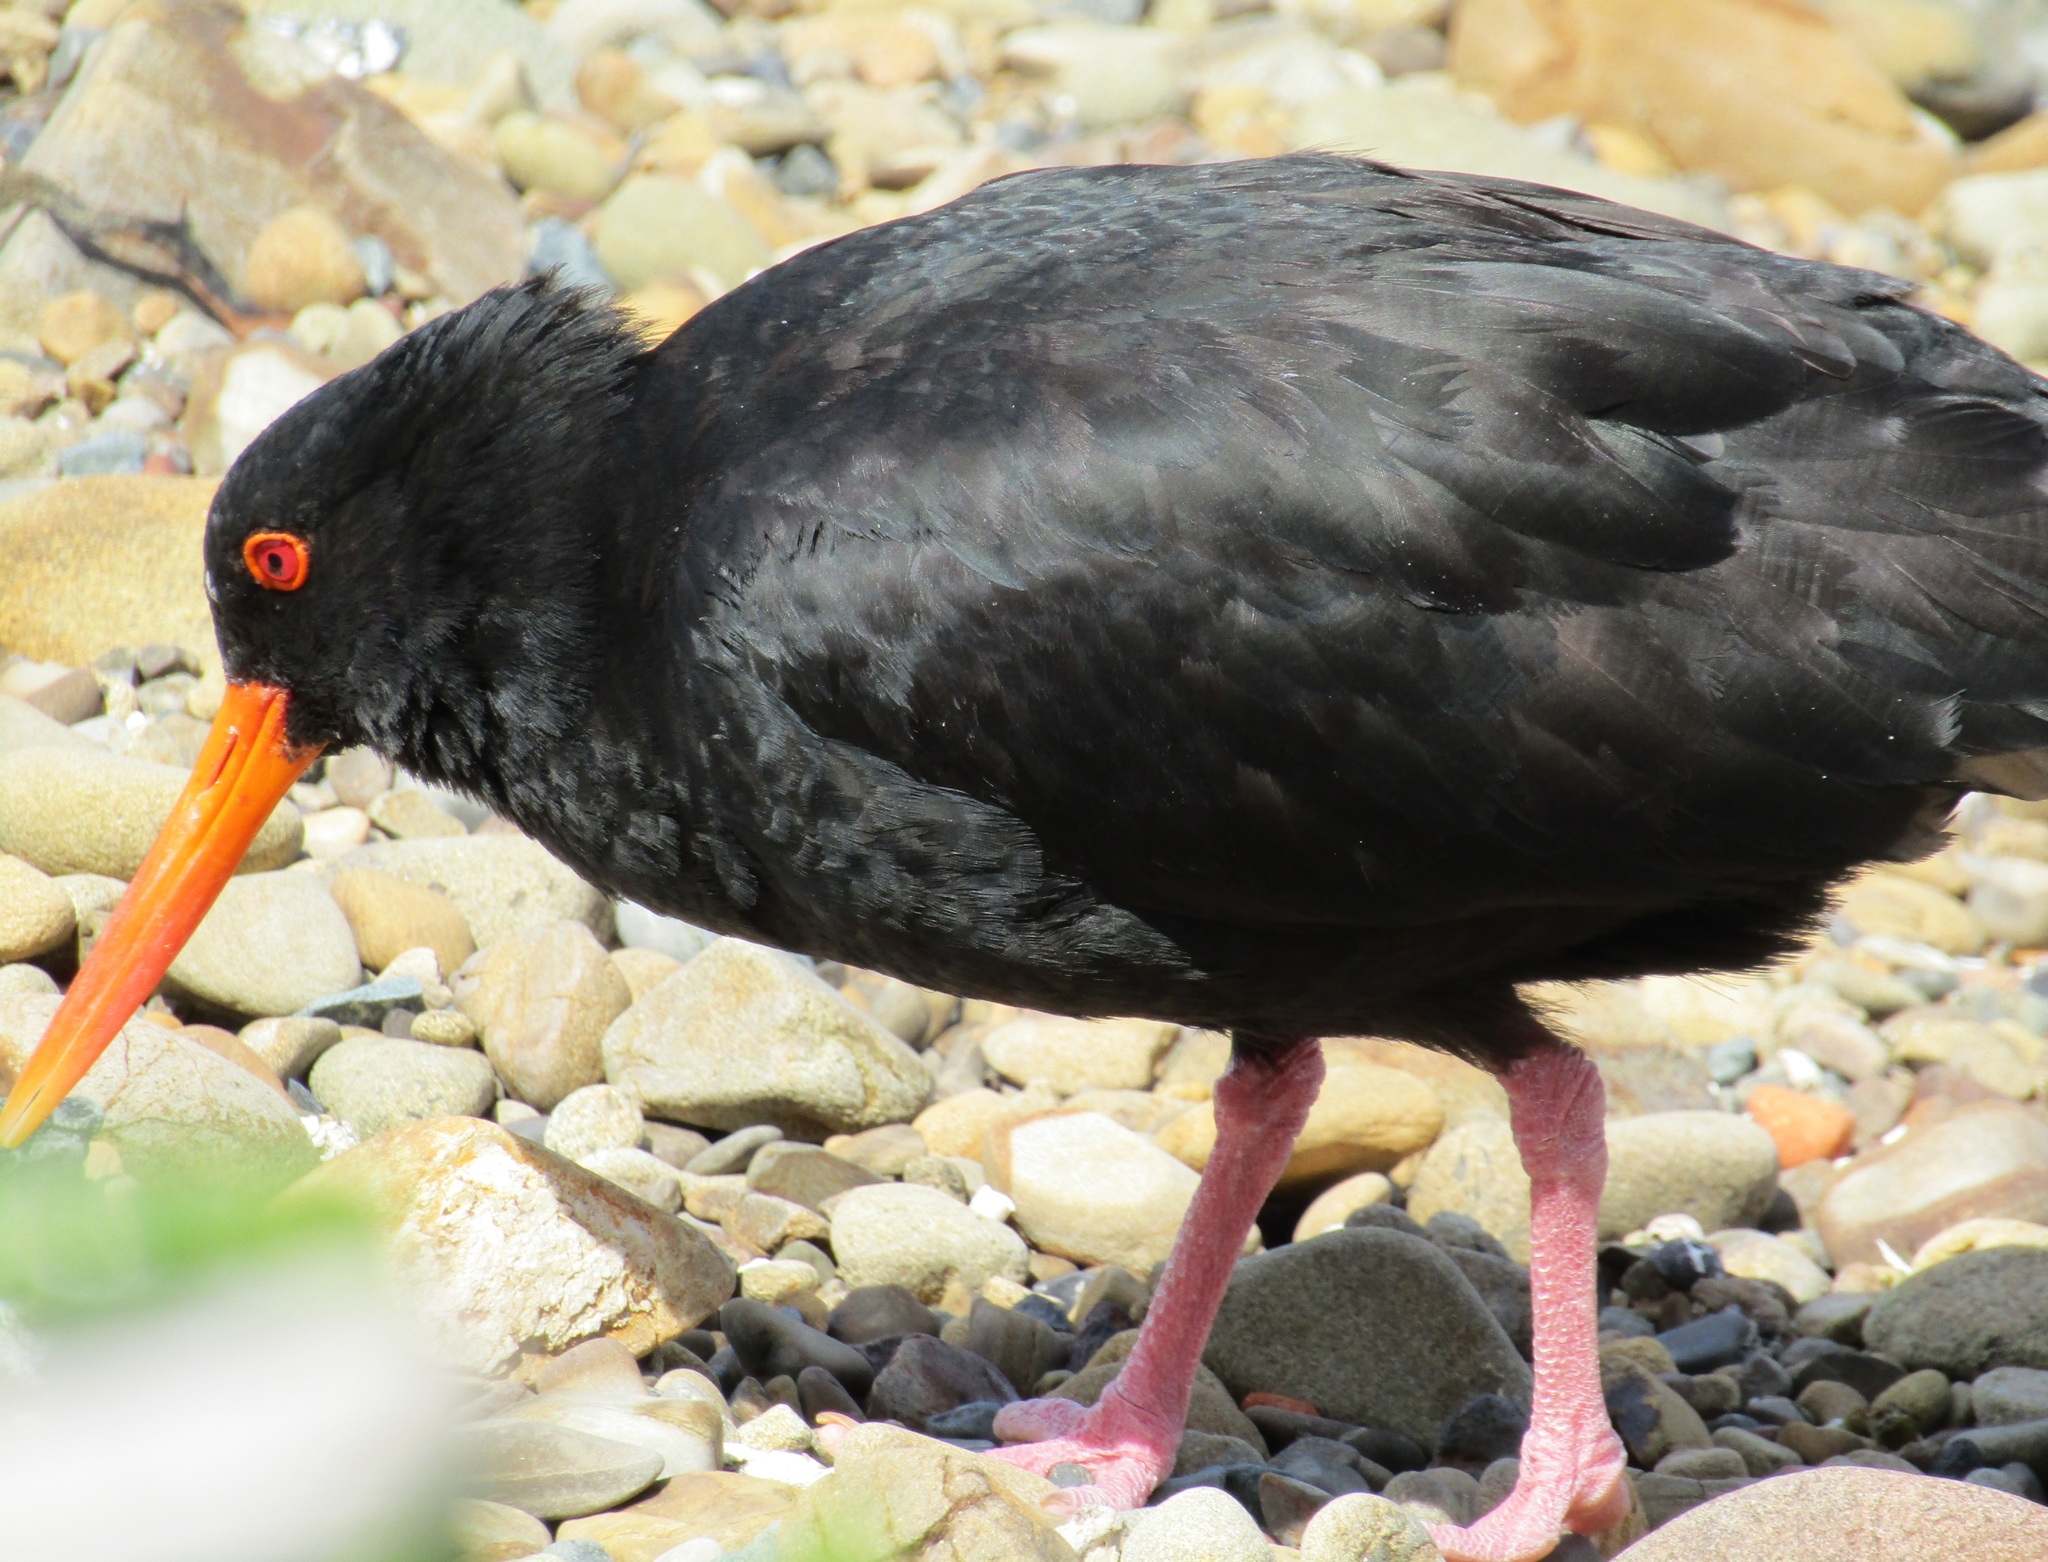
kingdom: Animalia
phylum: Chordata
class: Aves
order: Charadriiformes
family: Haematopodidae
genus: Haematopus
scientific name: Haematopus unicolor
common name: Variable oystercatcher
